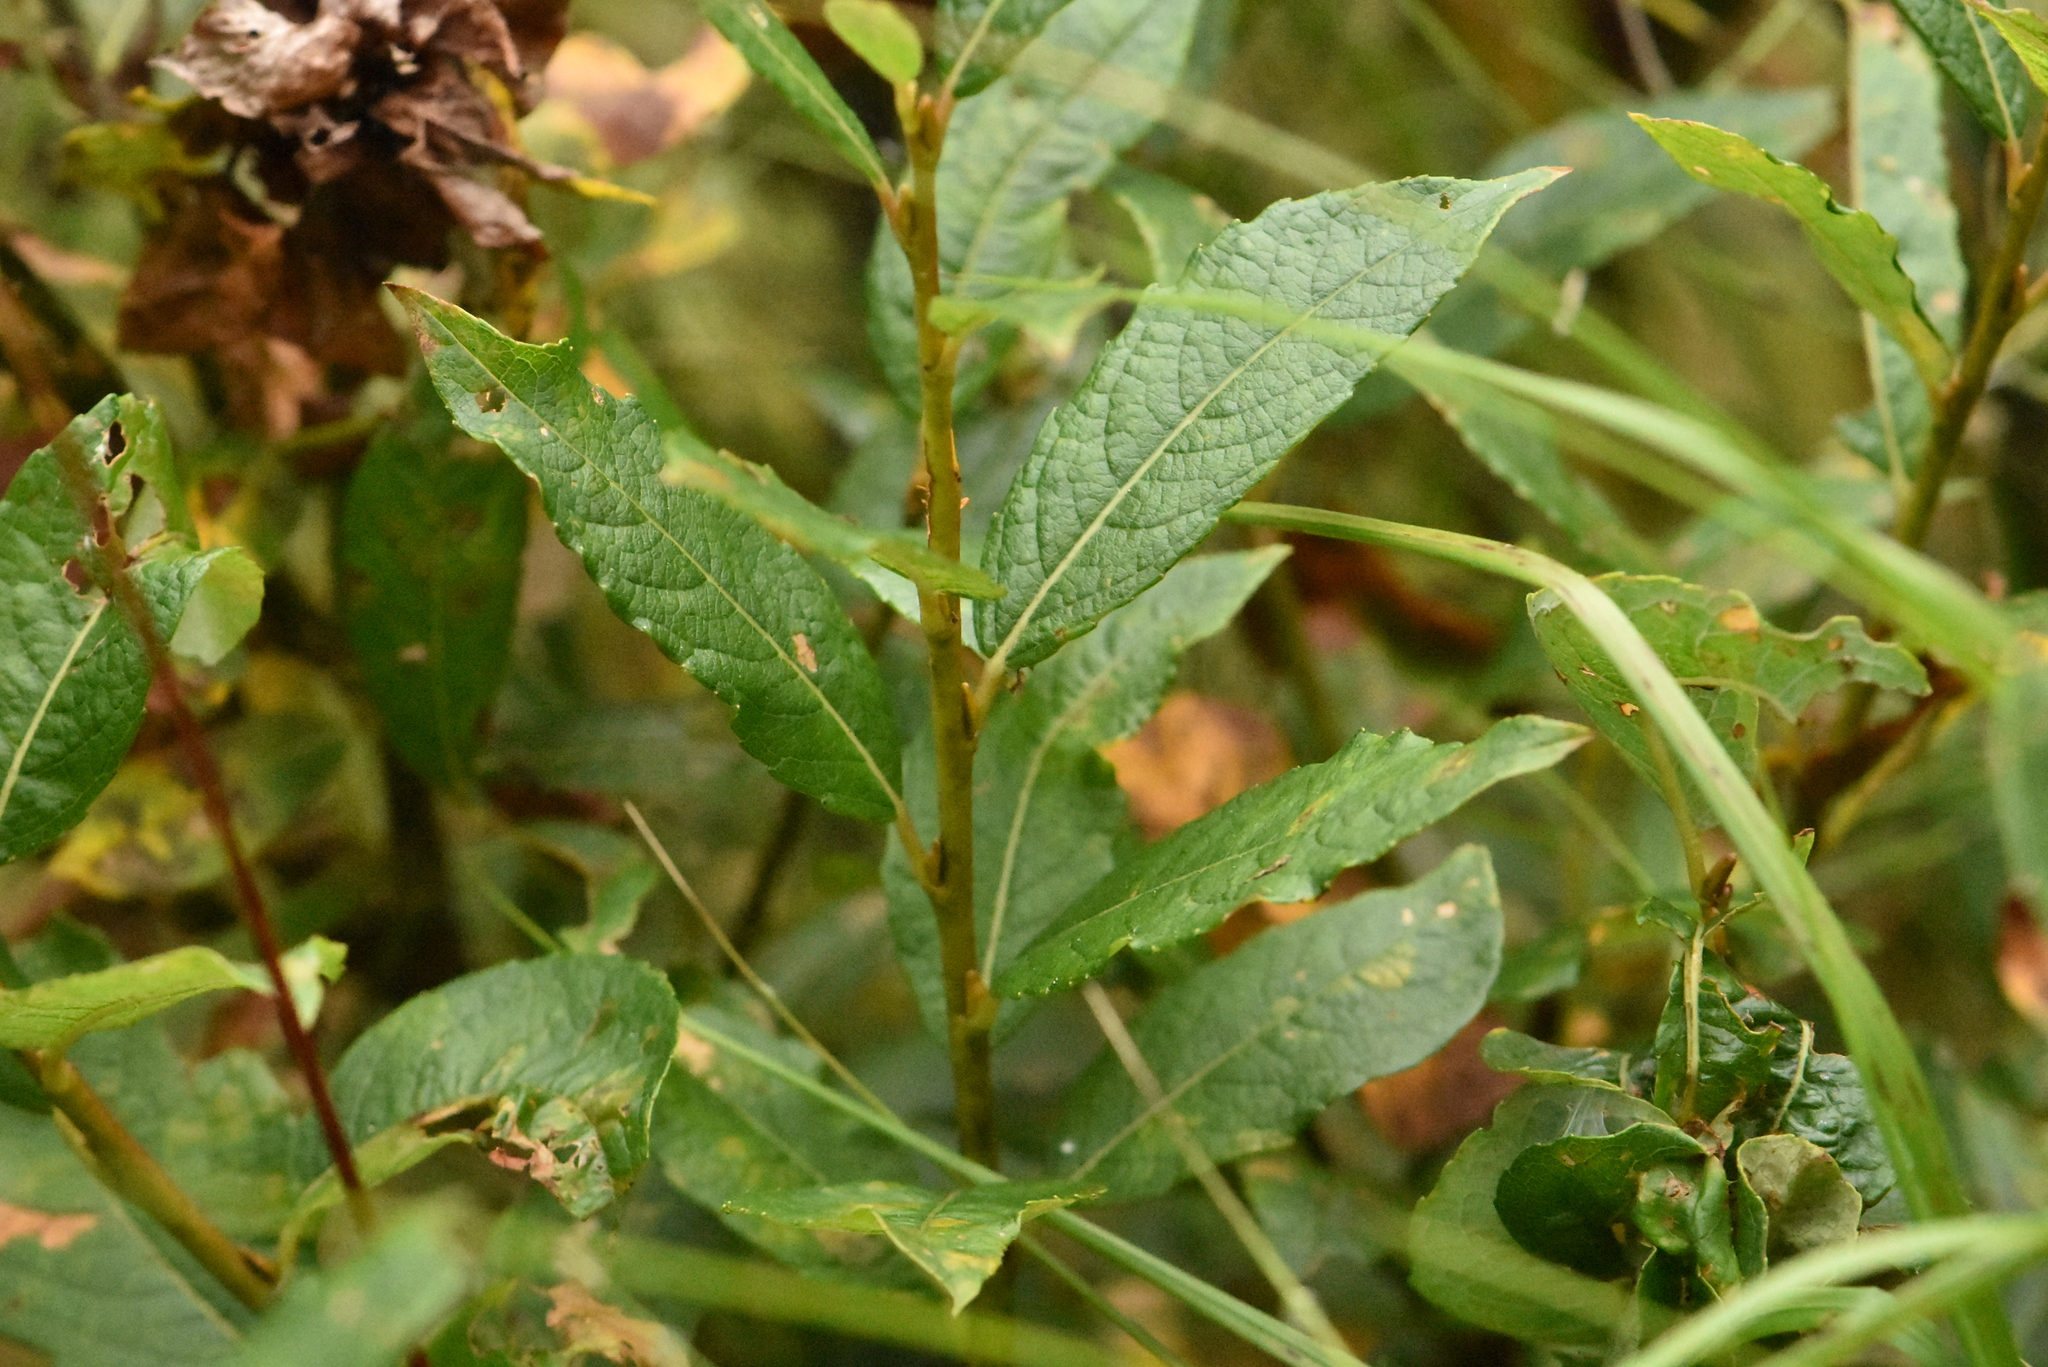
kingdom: Plantae
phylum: Tracheophyta
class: Magnoliopsida
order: Malpighiales
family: Salicaceae
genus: Salix
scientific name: Salix myrsinifolia
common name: Dark-leaved willow
